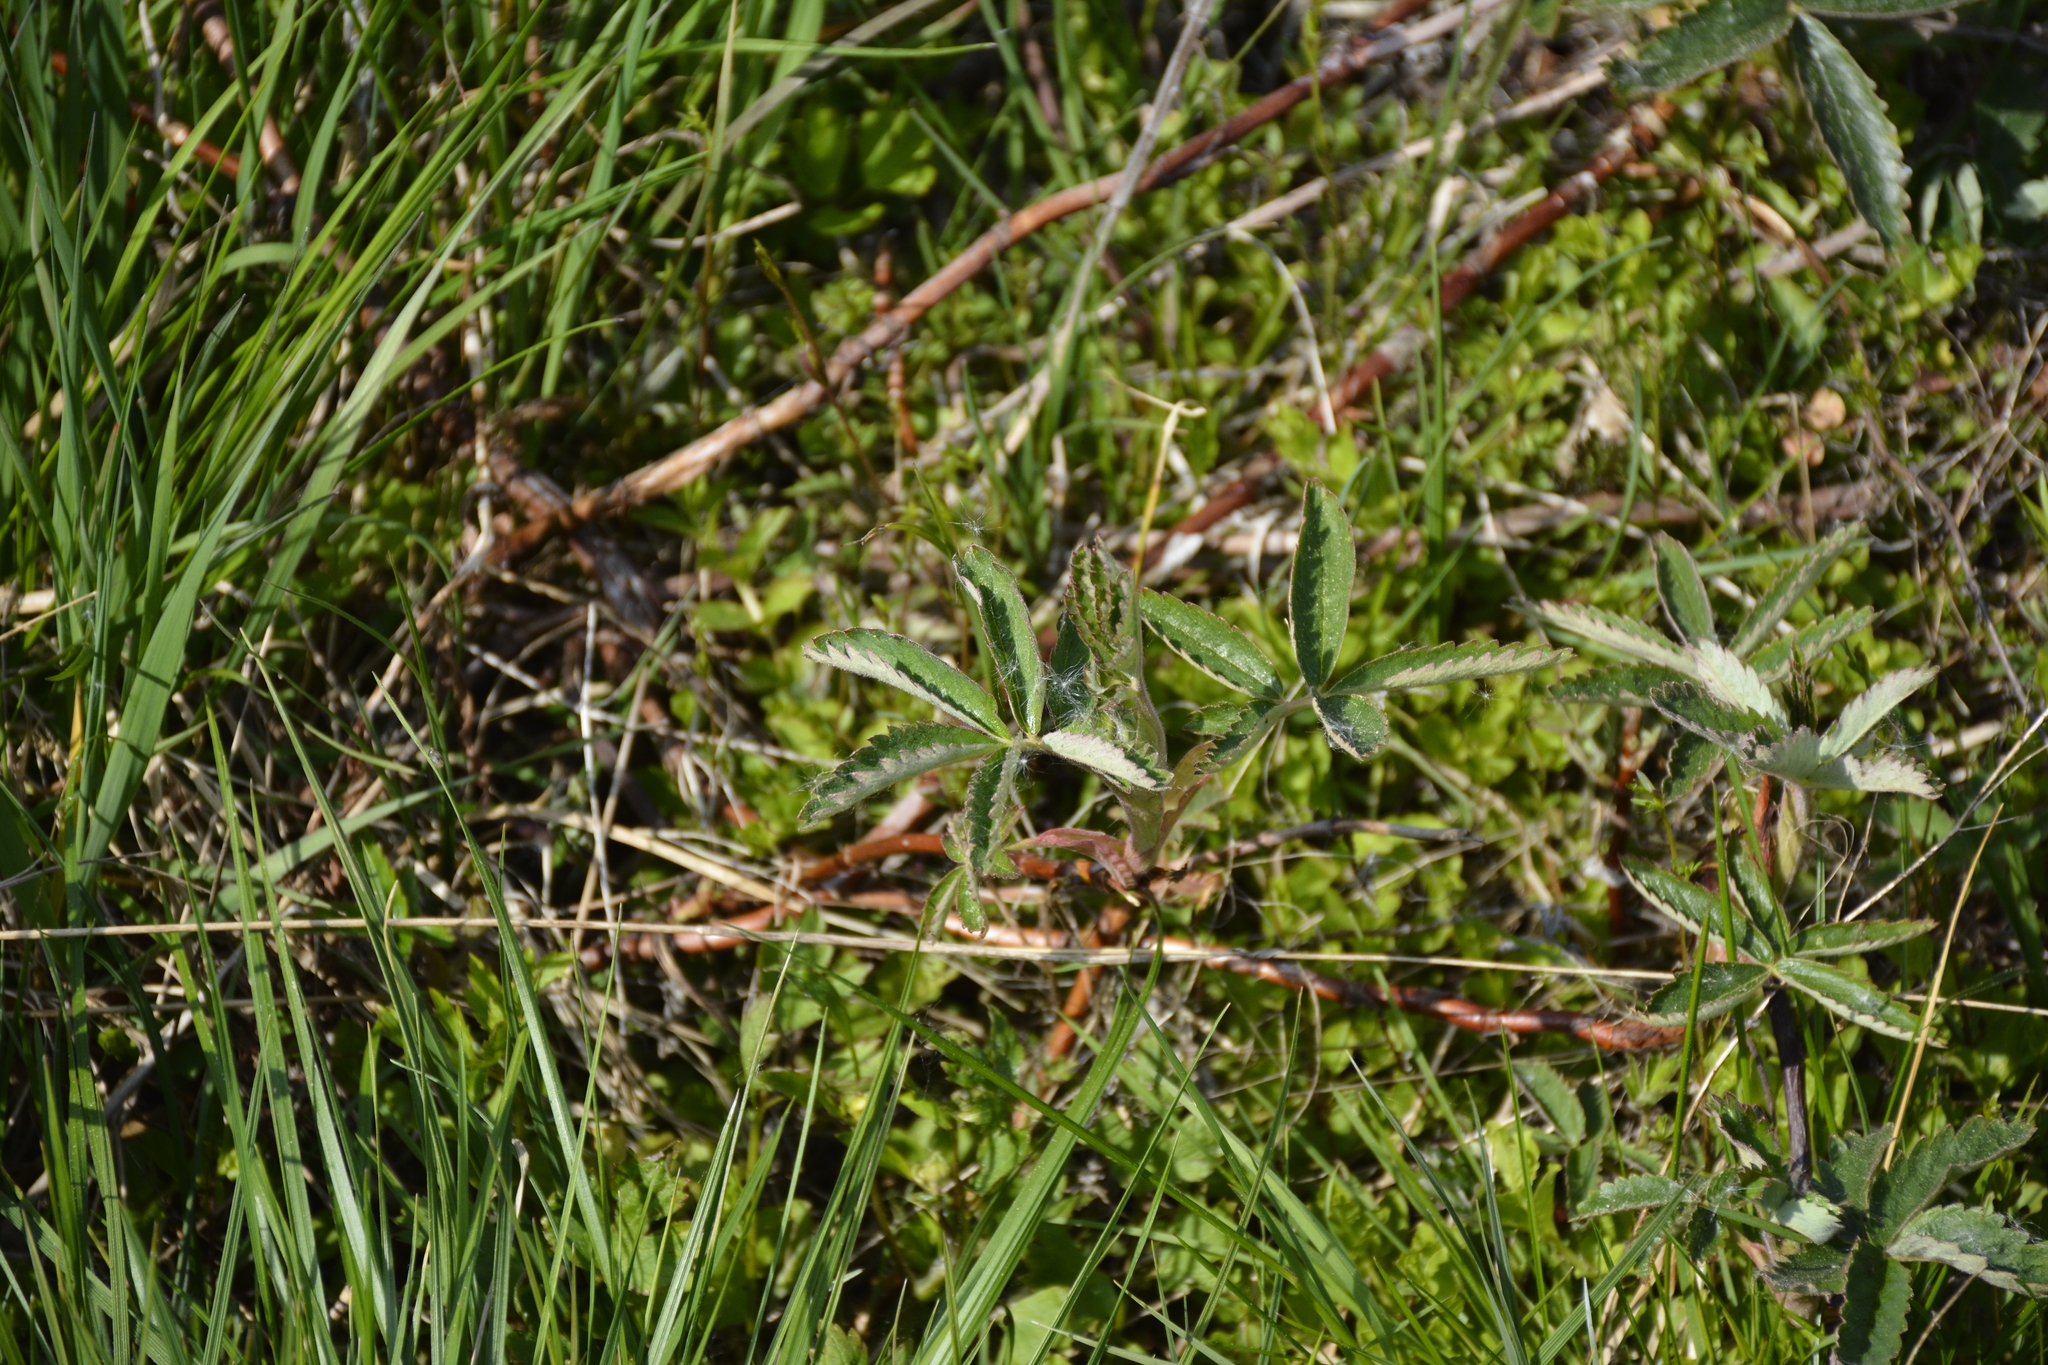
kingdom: Plantae
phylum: Tracheophyta
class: Magnoliopsida
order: Rosales
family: Rosaceae
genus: Comarum
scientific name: Comarum palustre
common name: Marsh cinquefoil
